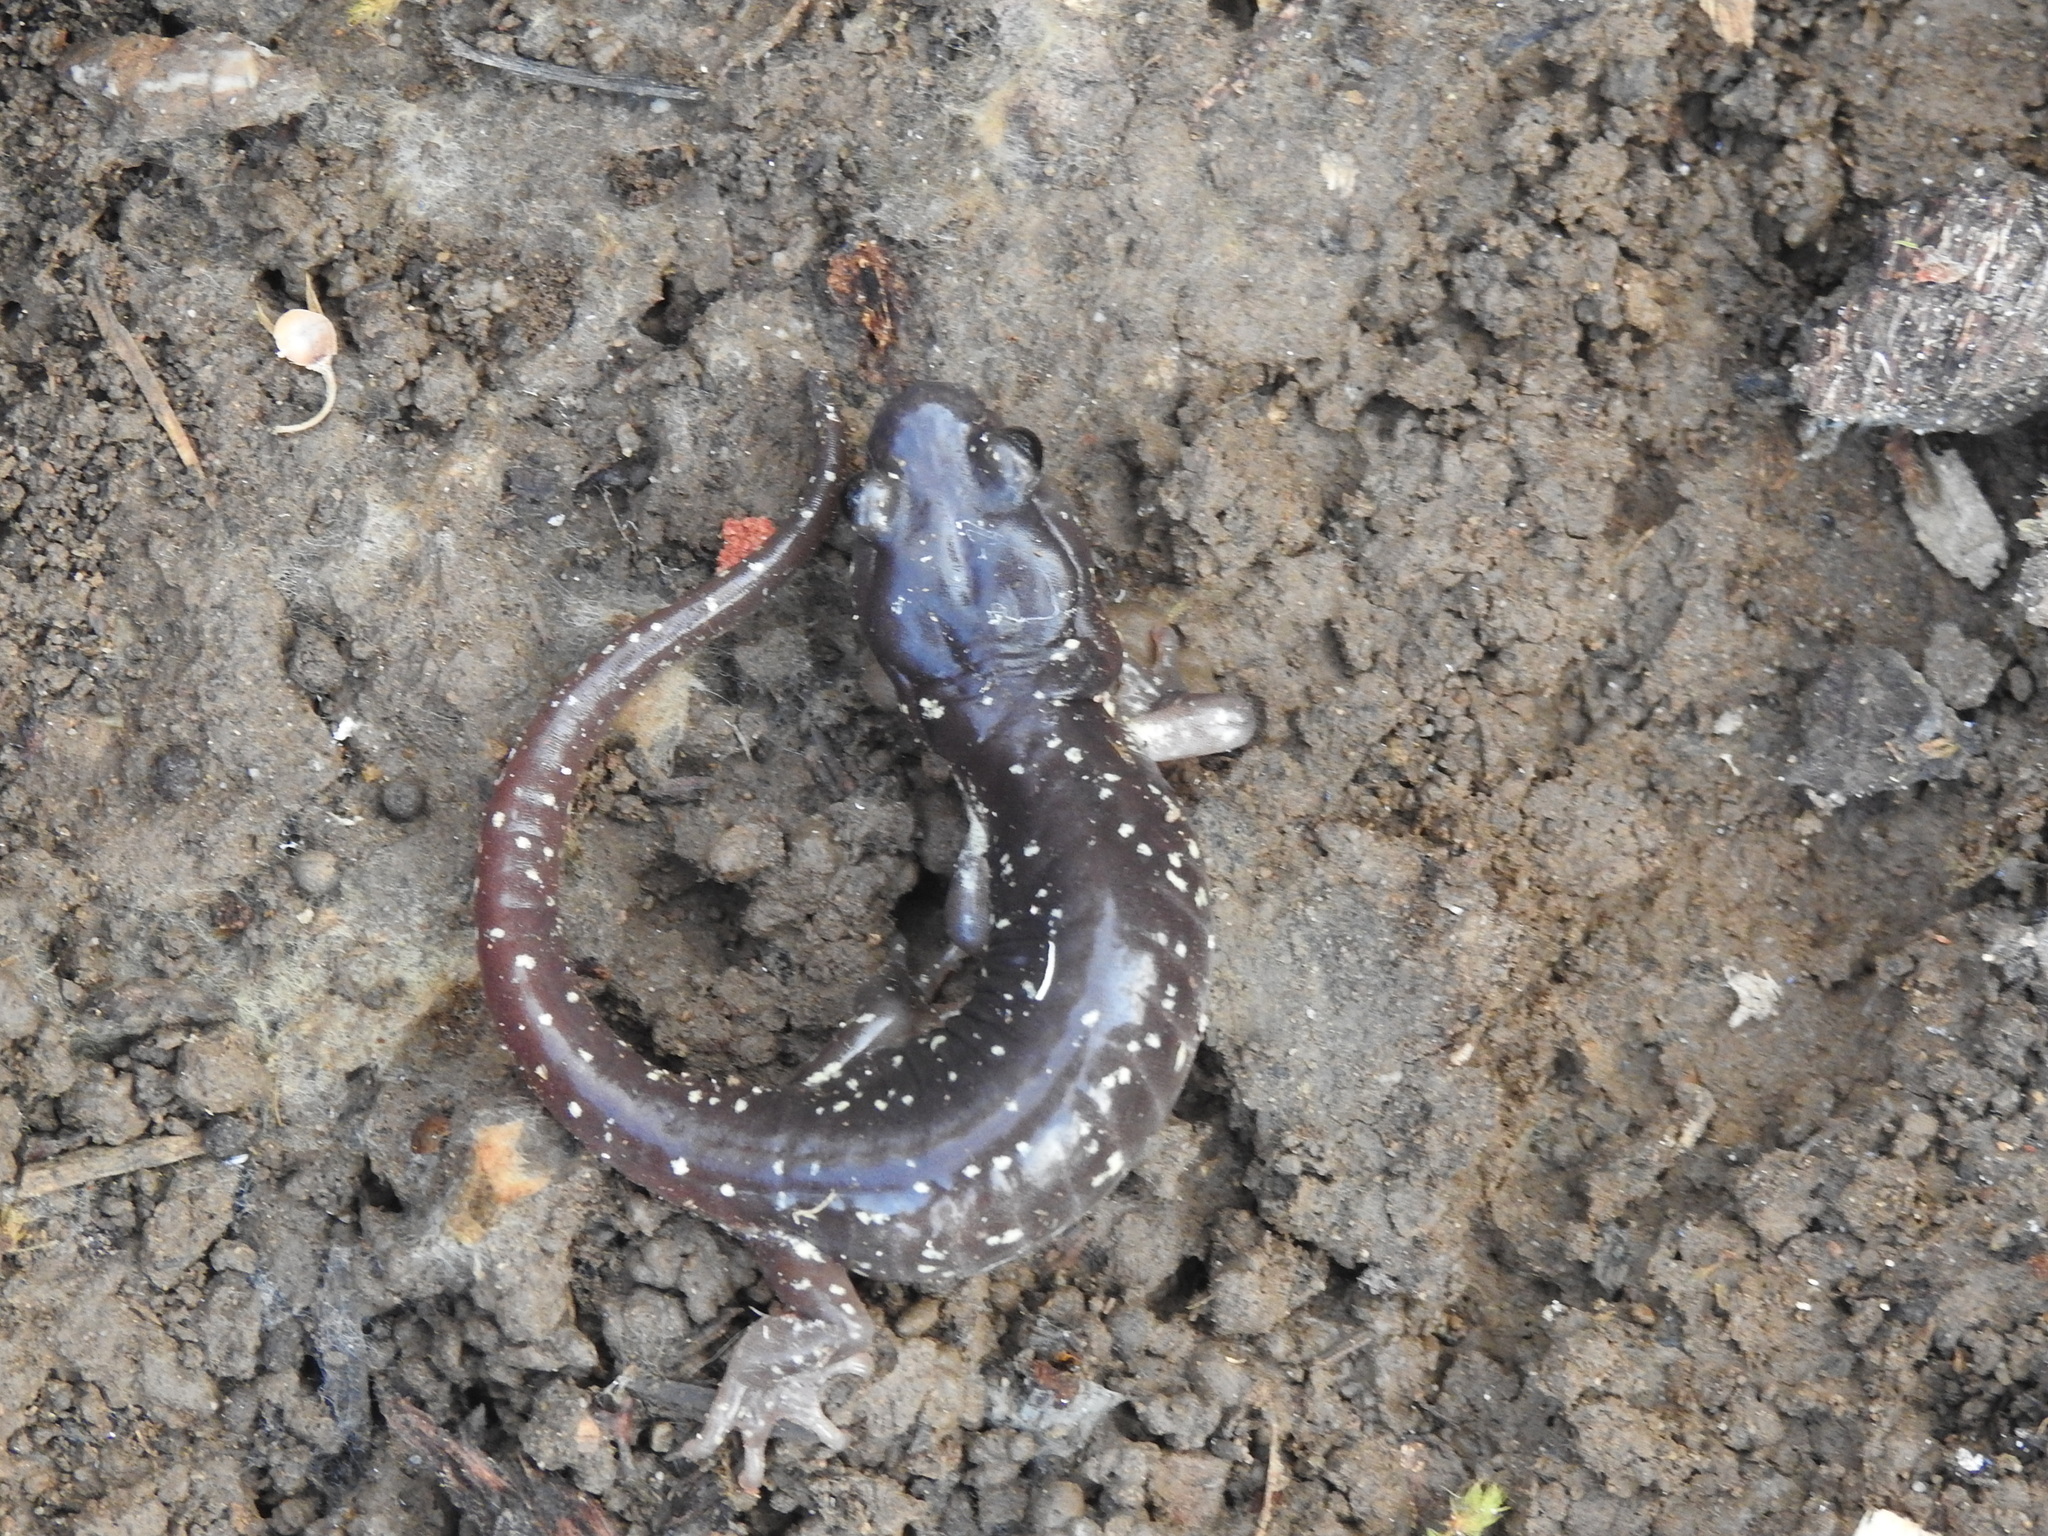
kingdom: Animalia
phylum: Chordata
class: Amphibia
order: Caudata
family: Plethodontidae
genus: Aneides
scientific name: Aneides lugubris
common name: Arboreal salamander
